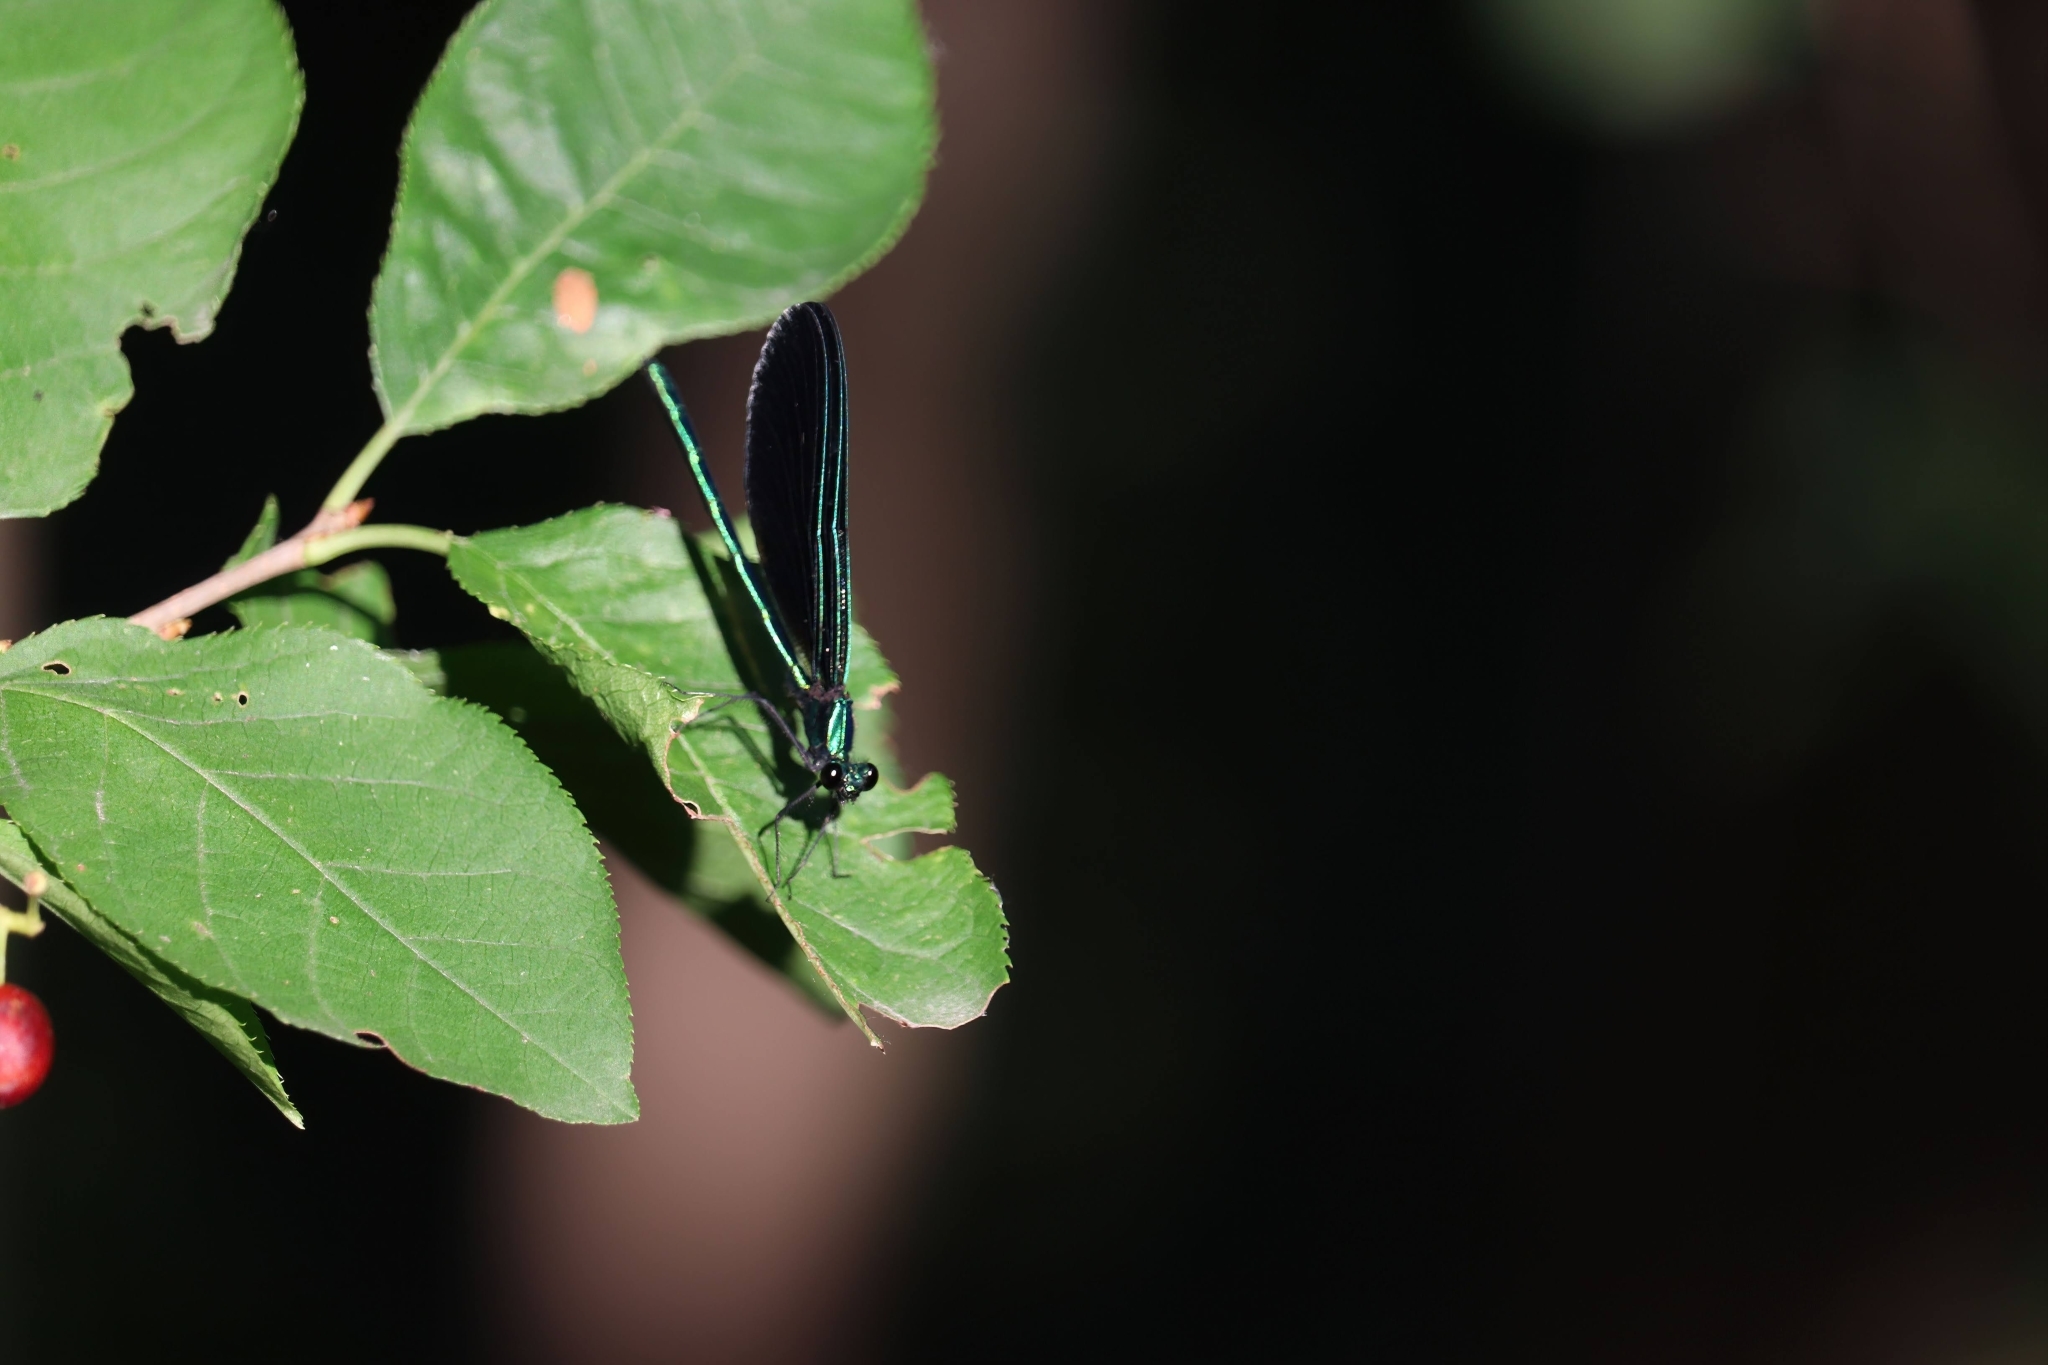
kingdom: Animalia
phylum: Arthropoda
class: Insecta
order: Odonata
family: Calopterygidae
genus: Calopteryx
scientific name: Calopteryx maculata
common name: Ebony jewelwing
